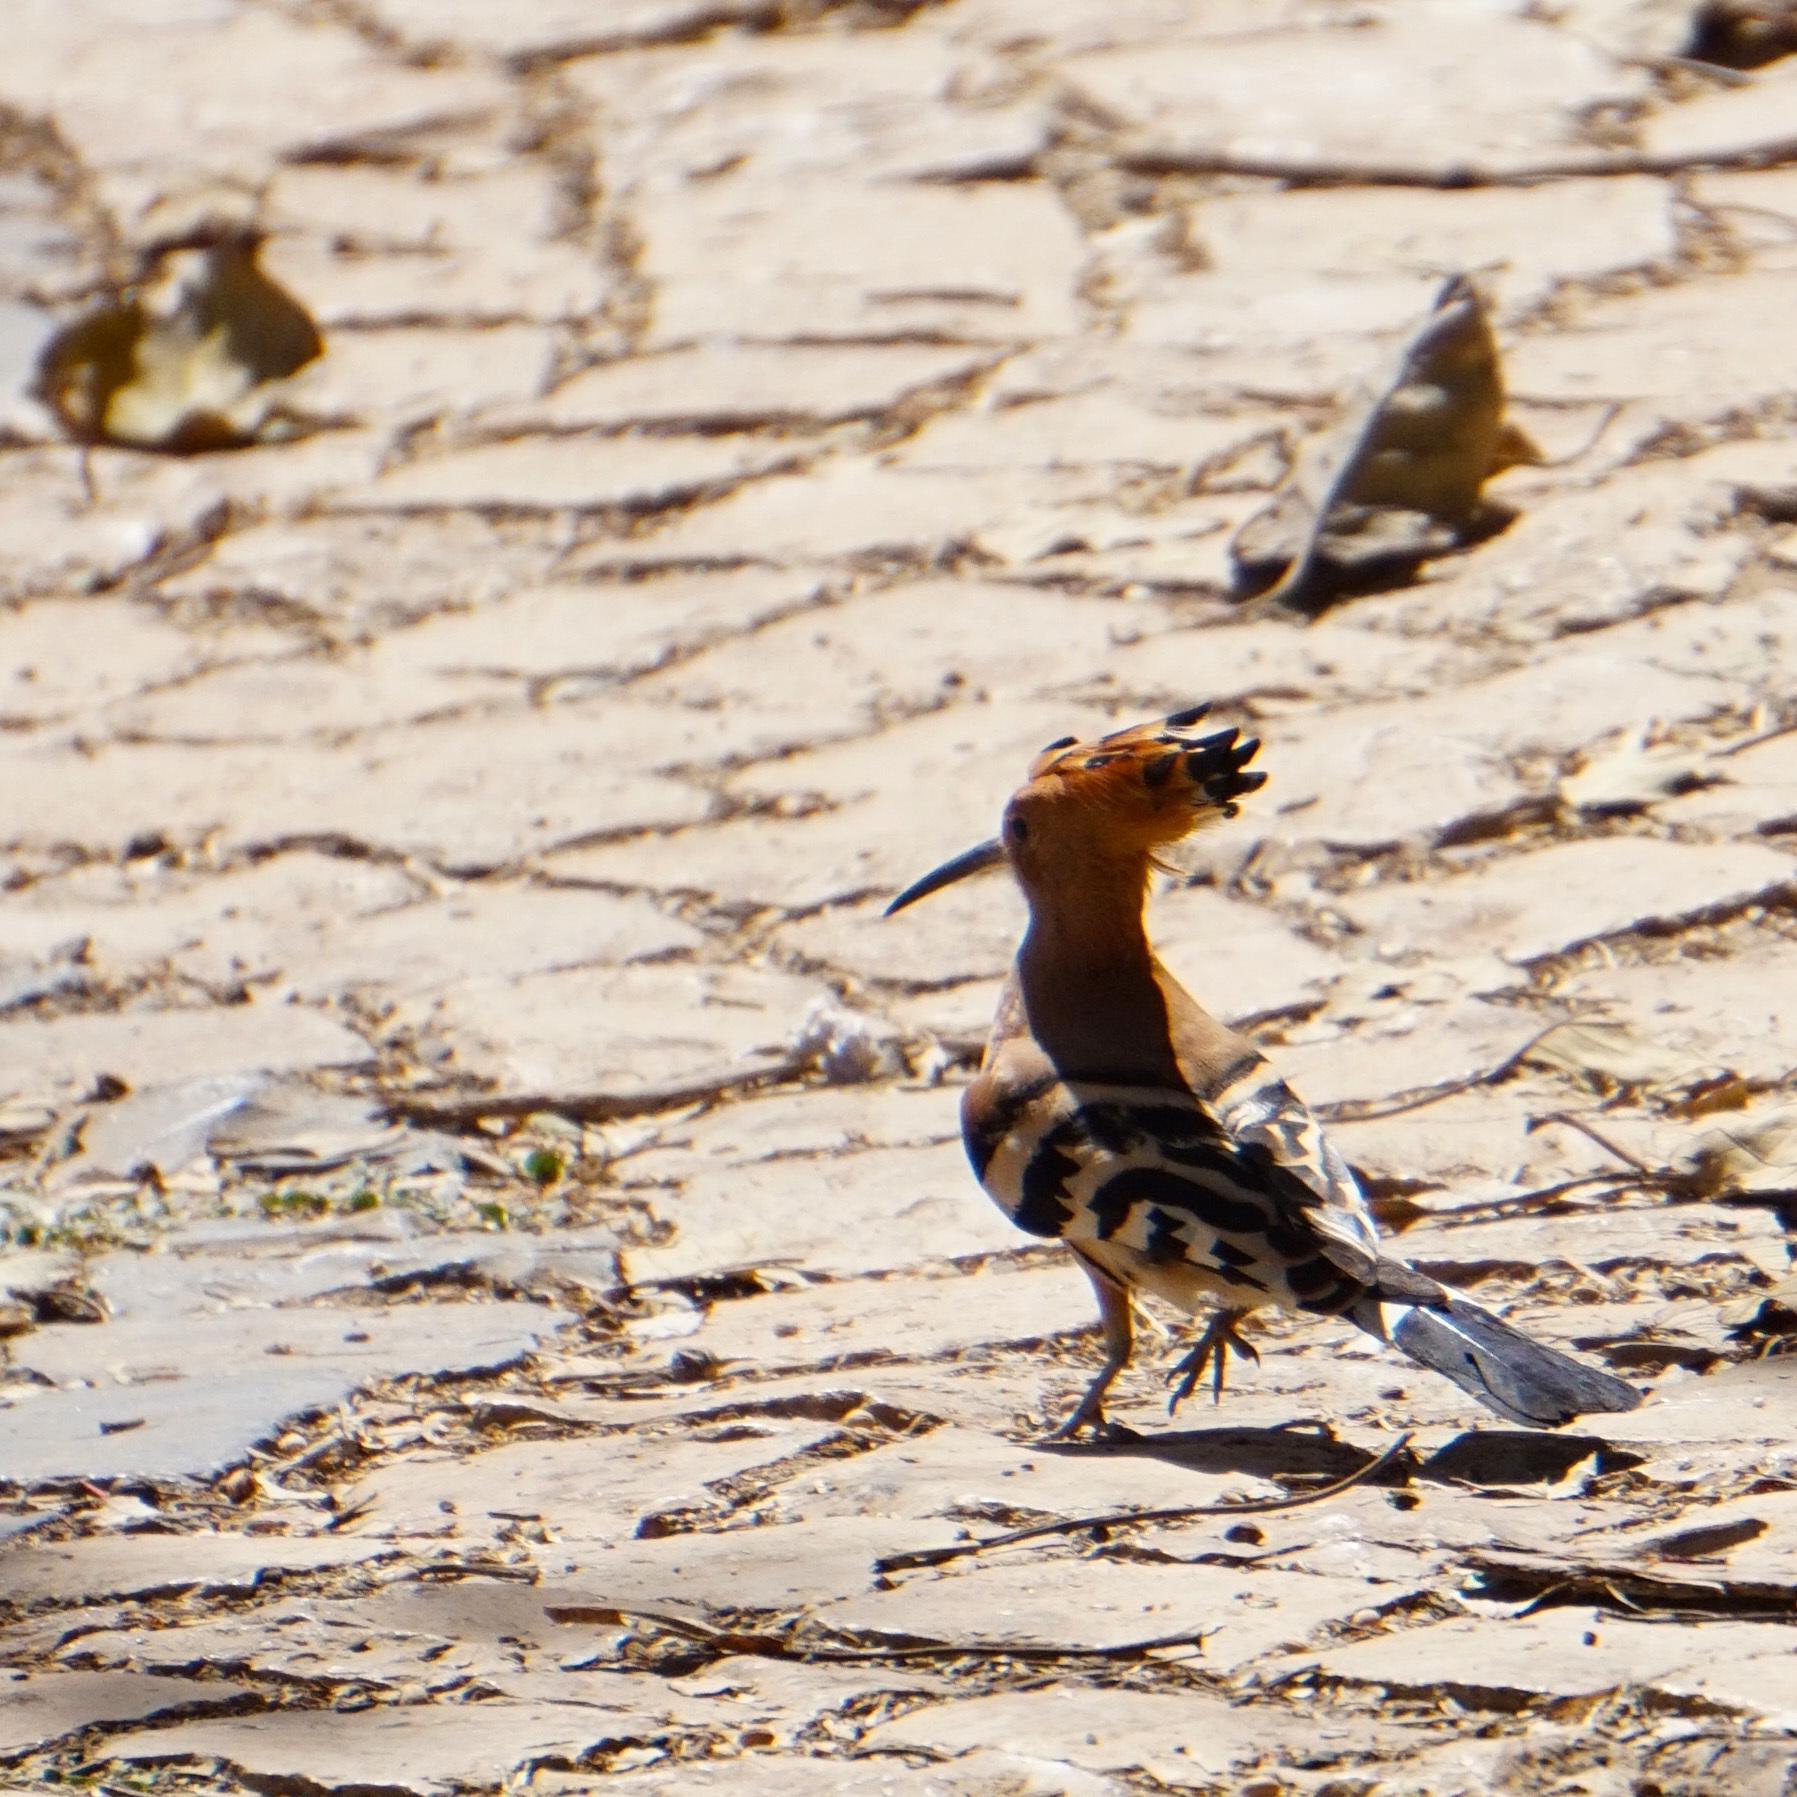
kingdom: Animalia
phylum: Chordata
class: Aves
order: Bucerotiformes
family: Upupidae
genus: Upupa
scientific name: Upupa epops
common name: Eurasian hoopoe
